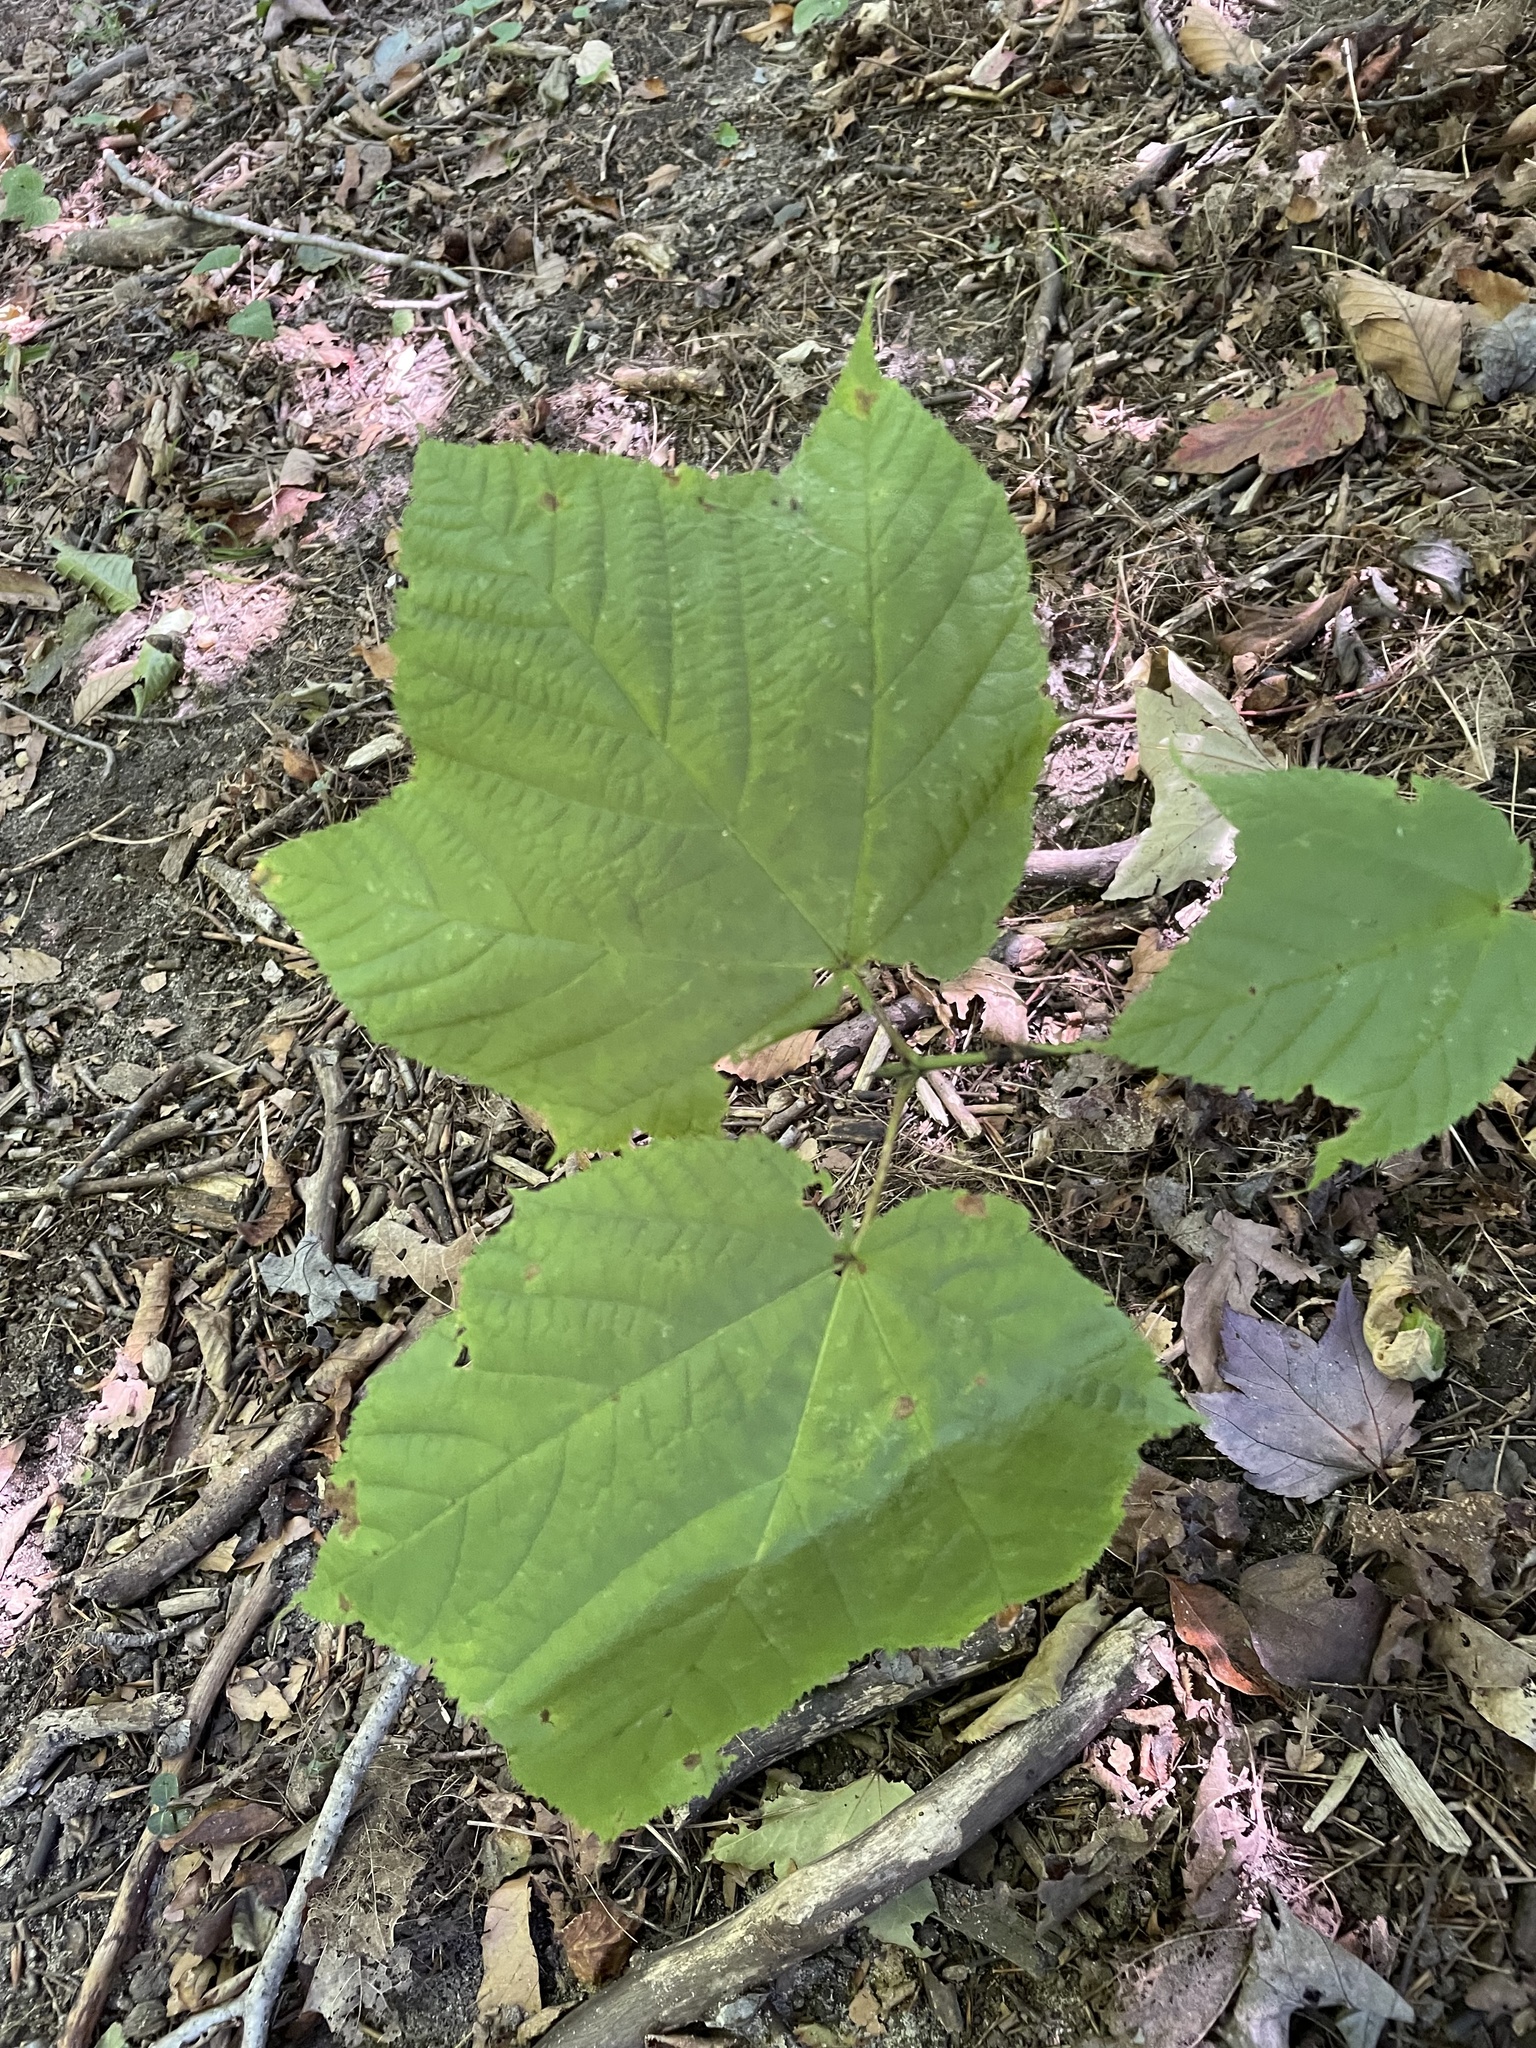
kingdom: Plantae
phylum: Tracheophyta
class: Magnoliopsida
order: Sapindales
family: Sapindaceae
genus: Acer
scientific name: Acer pensylvanicum
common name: Moosewood
